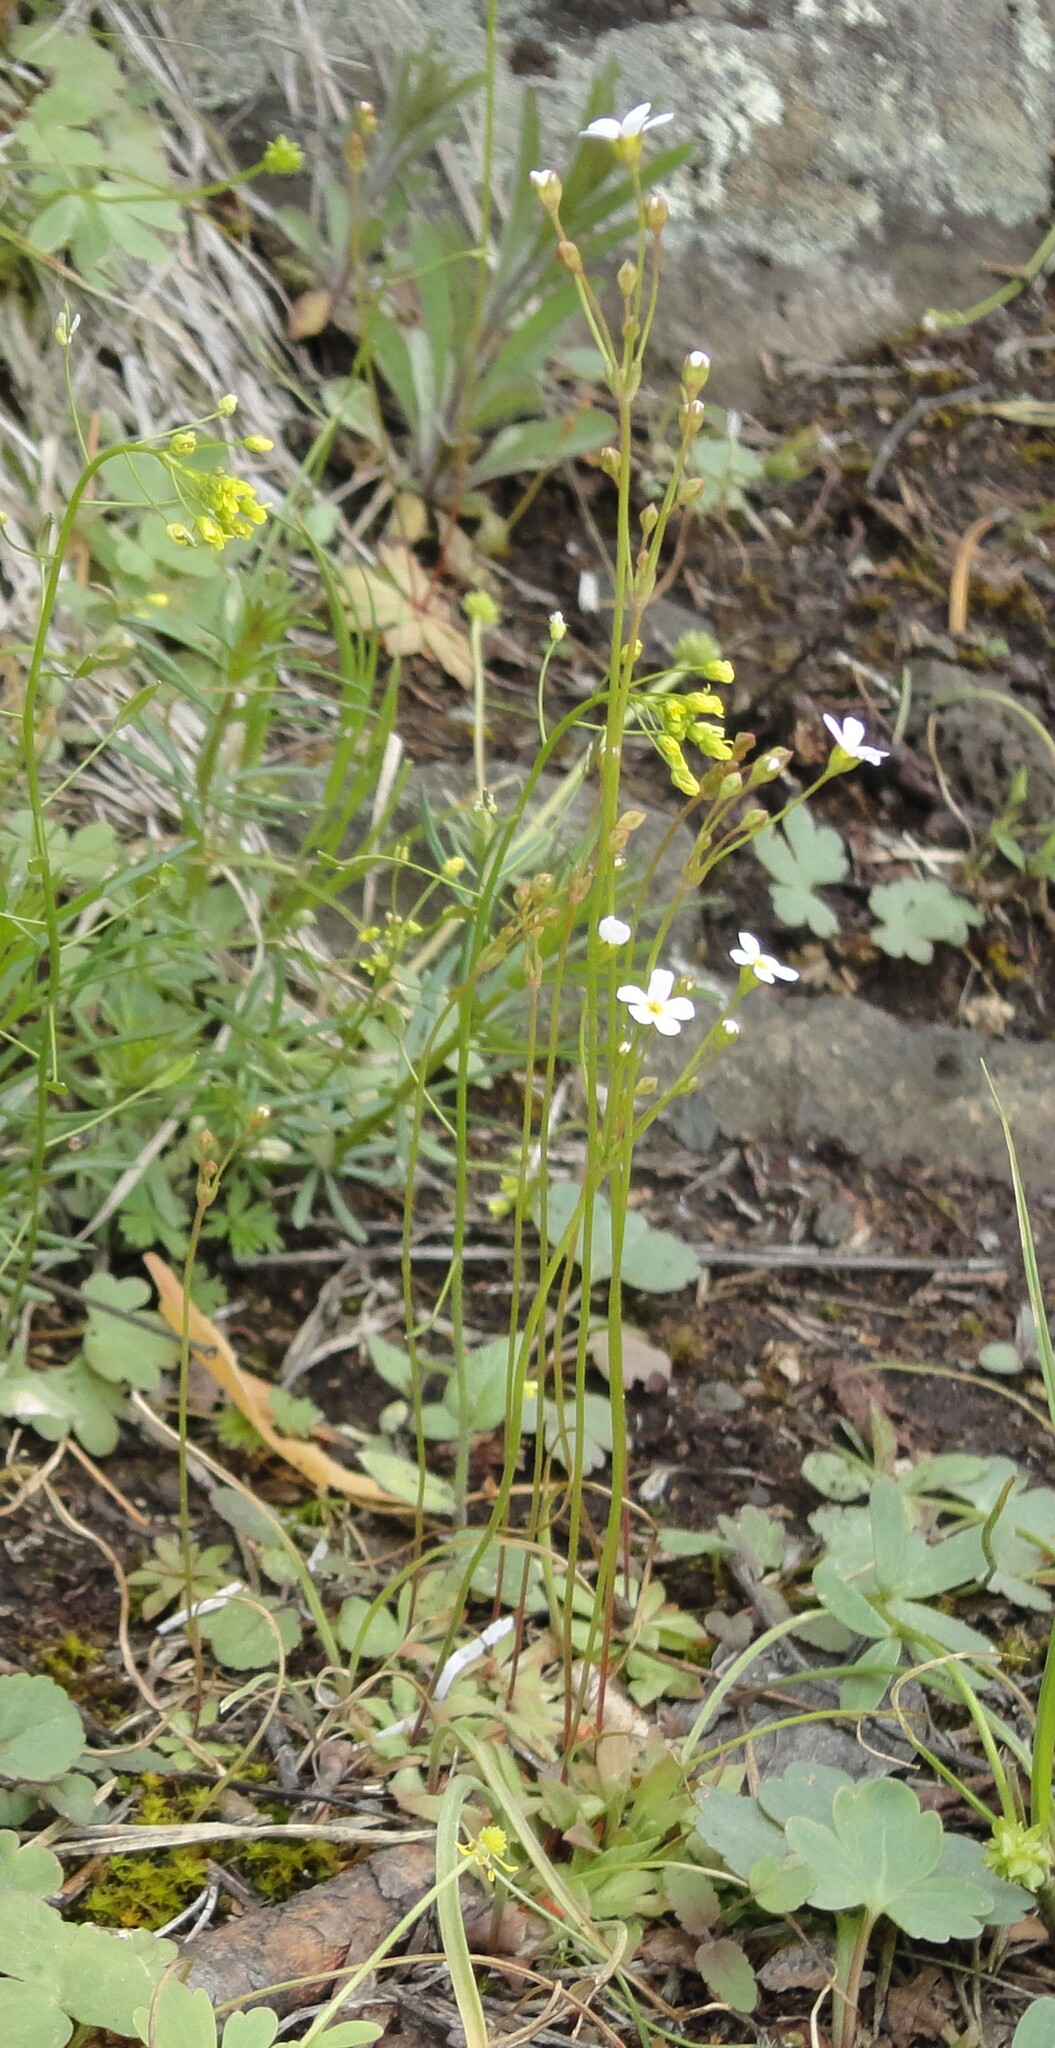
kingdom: Plantae
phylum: Tracheophyta
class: Magnoliopsida
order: Ericales
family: Primulaceae
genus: Androsace
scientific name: Androsace lactiflora
